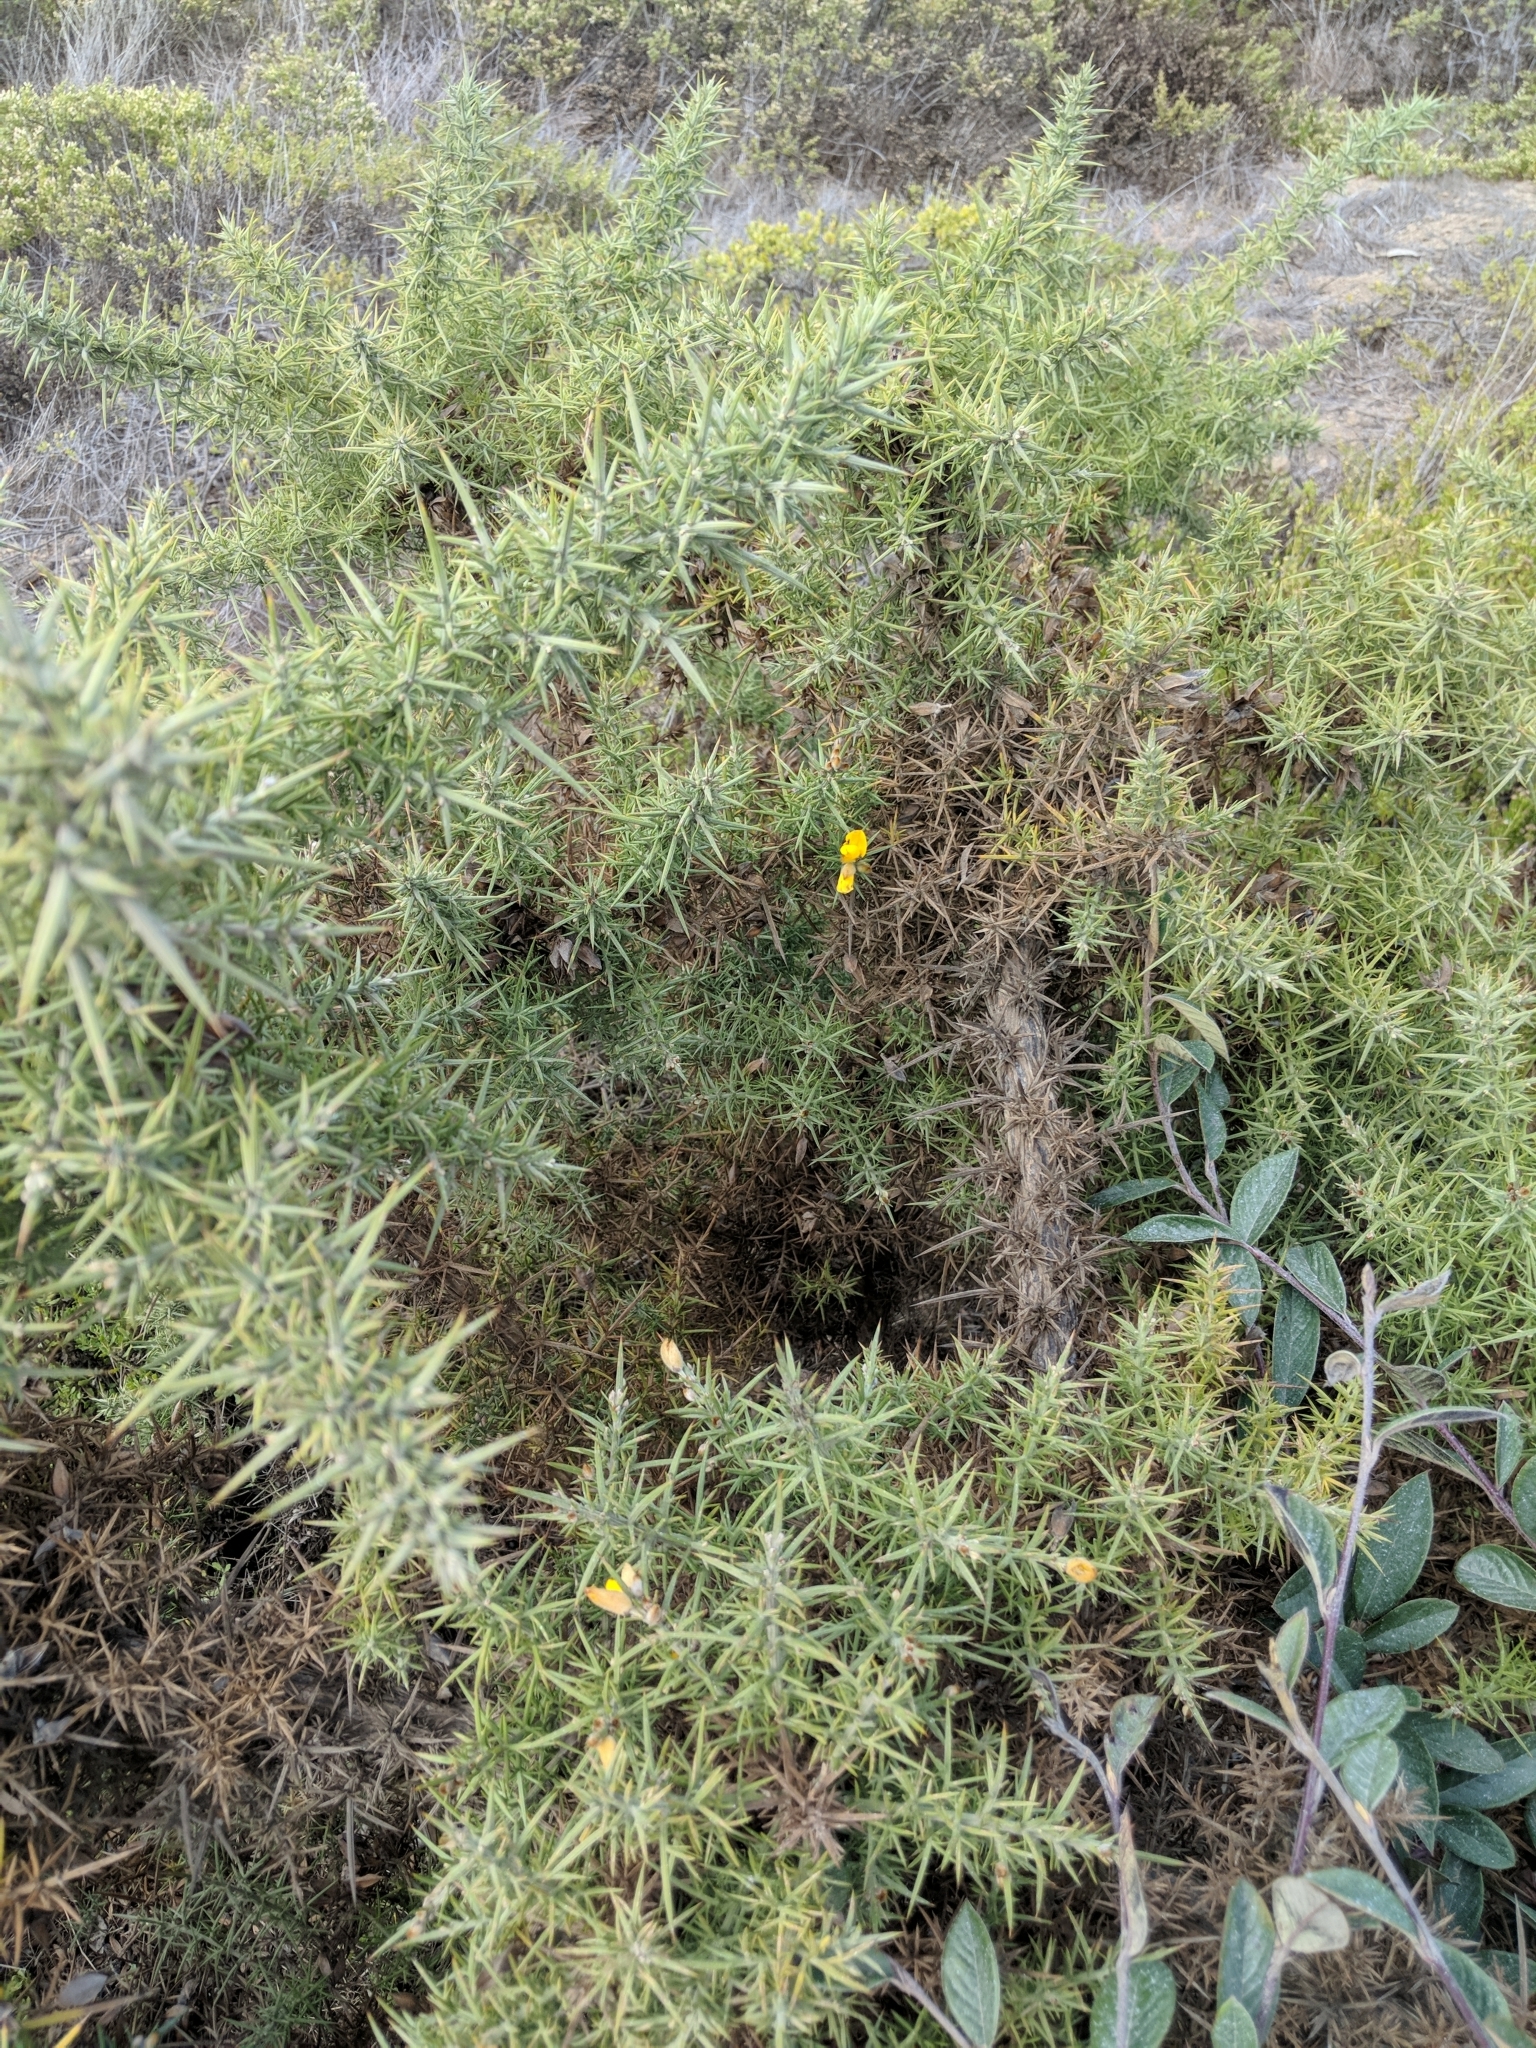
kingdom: Plantae
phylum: Tracheophyta
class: Magnoliopsida
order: Fabales
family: Fabaceae
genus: Ulex
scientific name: Ulex europaeus
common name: Common gorse
